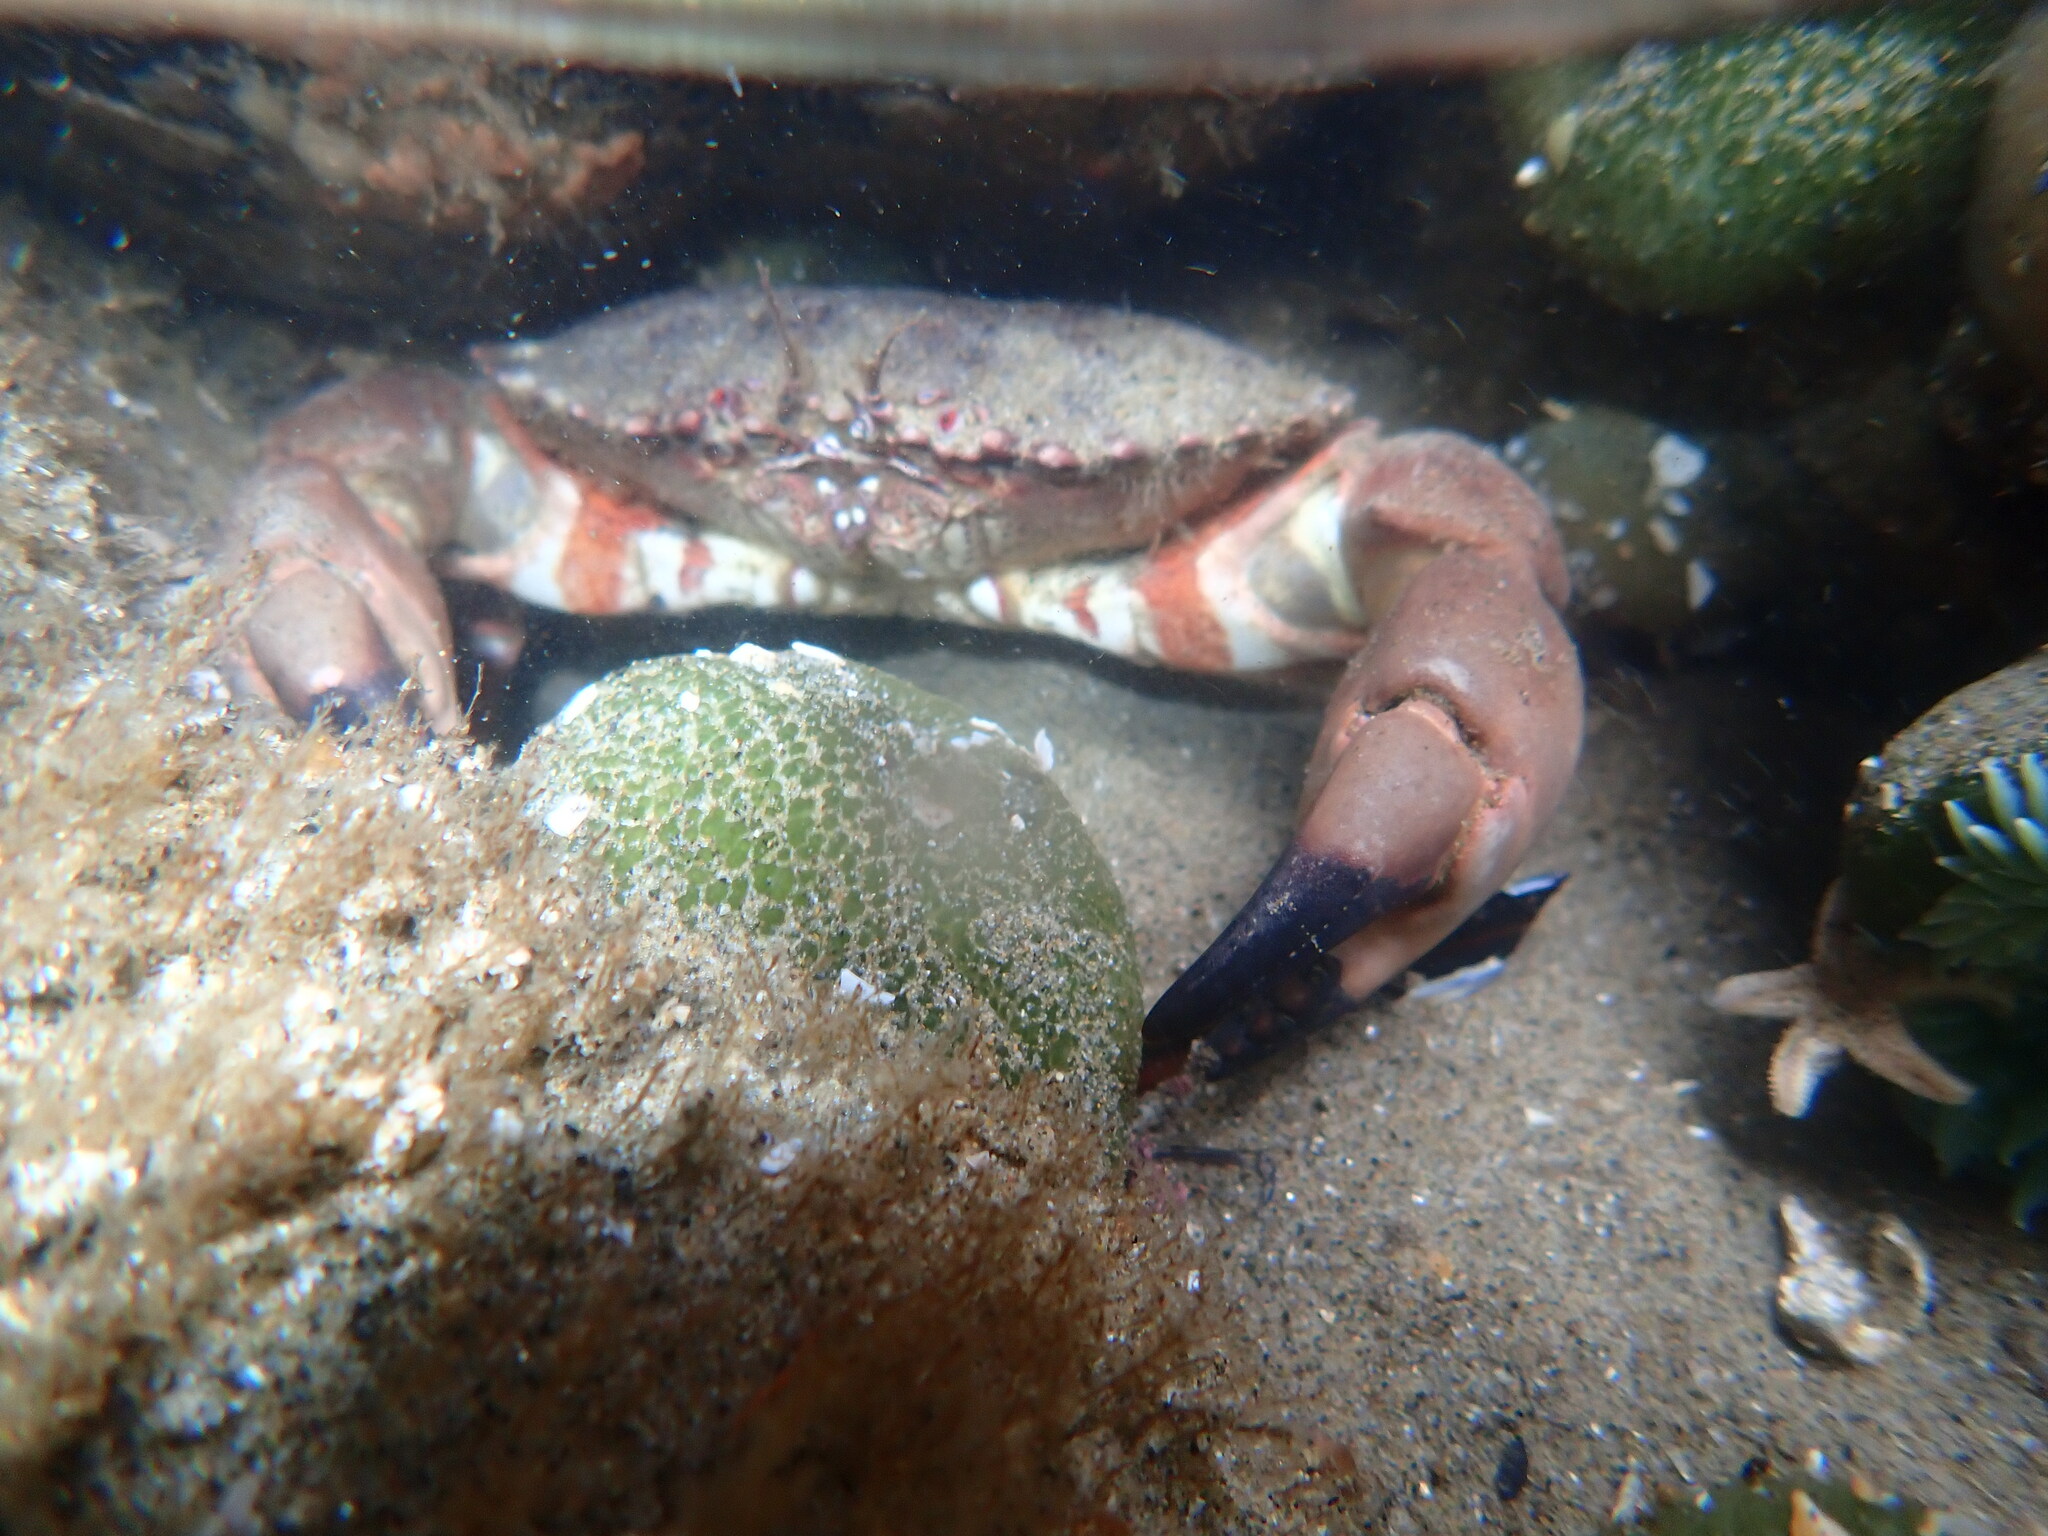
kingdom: Animalia
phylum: Arthropoda
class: Malacostraca
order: Decapoda
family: Cancridae
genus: Romaleon
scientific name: Romaleon antennarium
